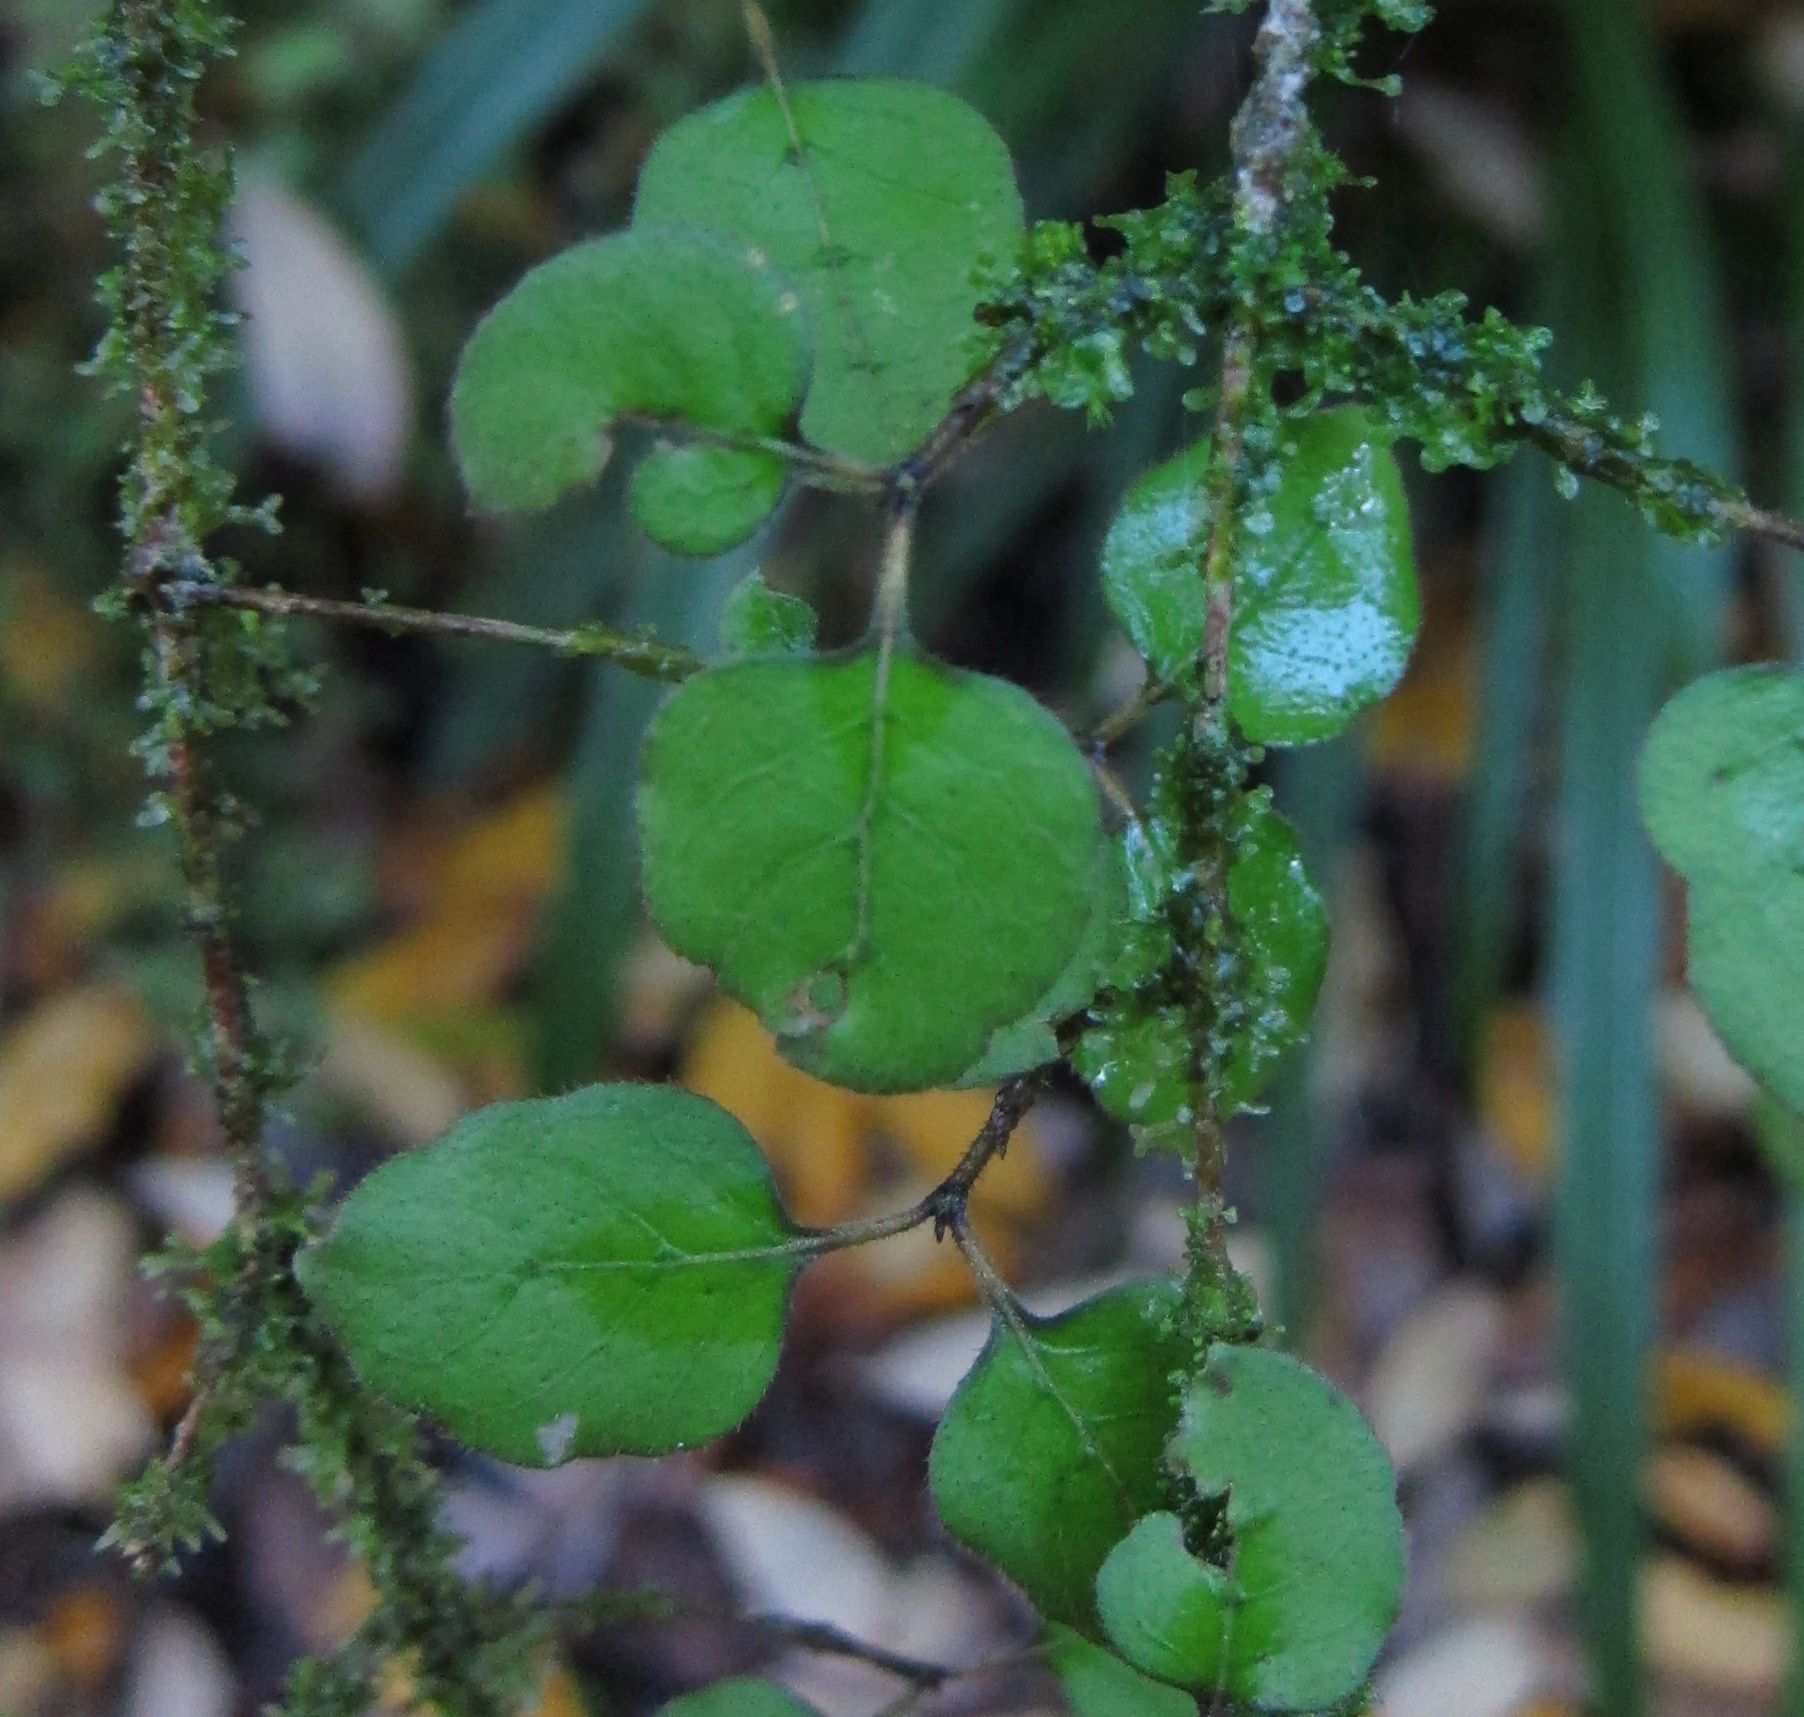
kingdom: Plantae
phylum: Tracheophyta
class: Magnoliopsida
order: Gentianales
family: Rubiaceae
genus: Coprosma
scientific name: Coprosma rotundifolia
